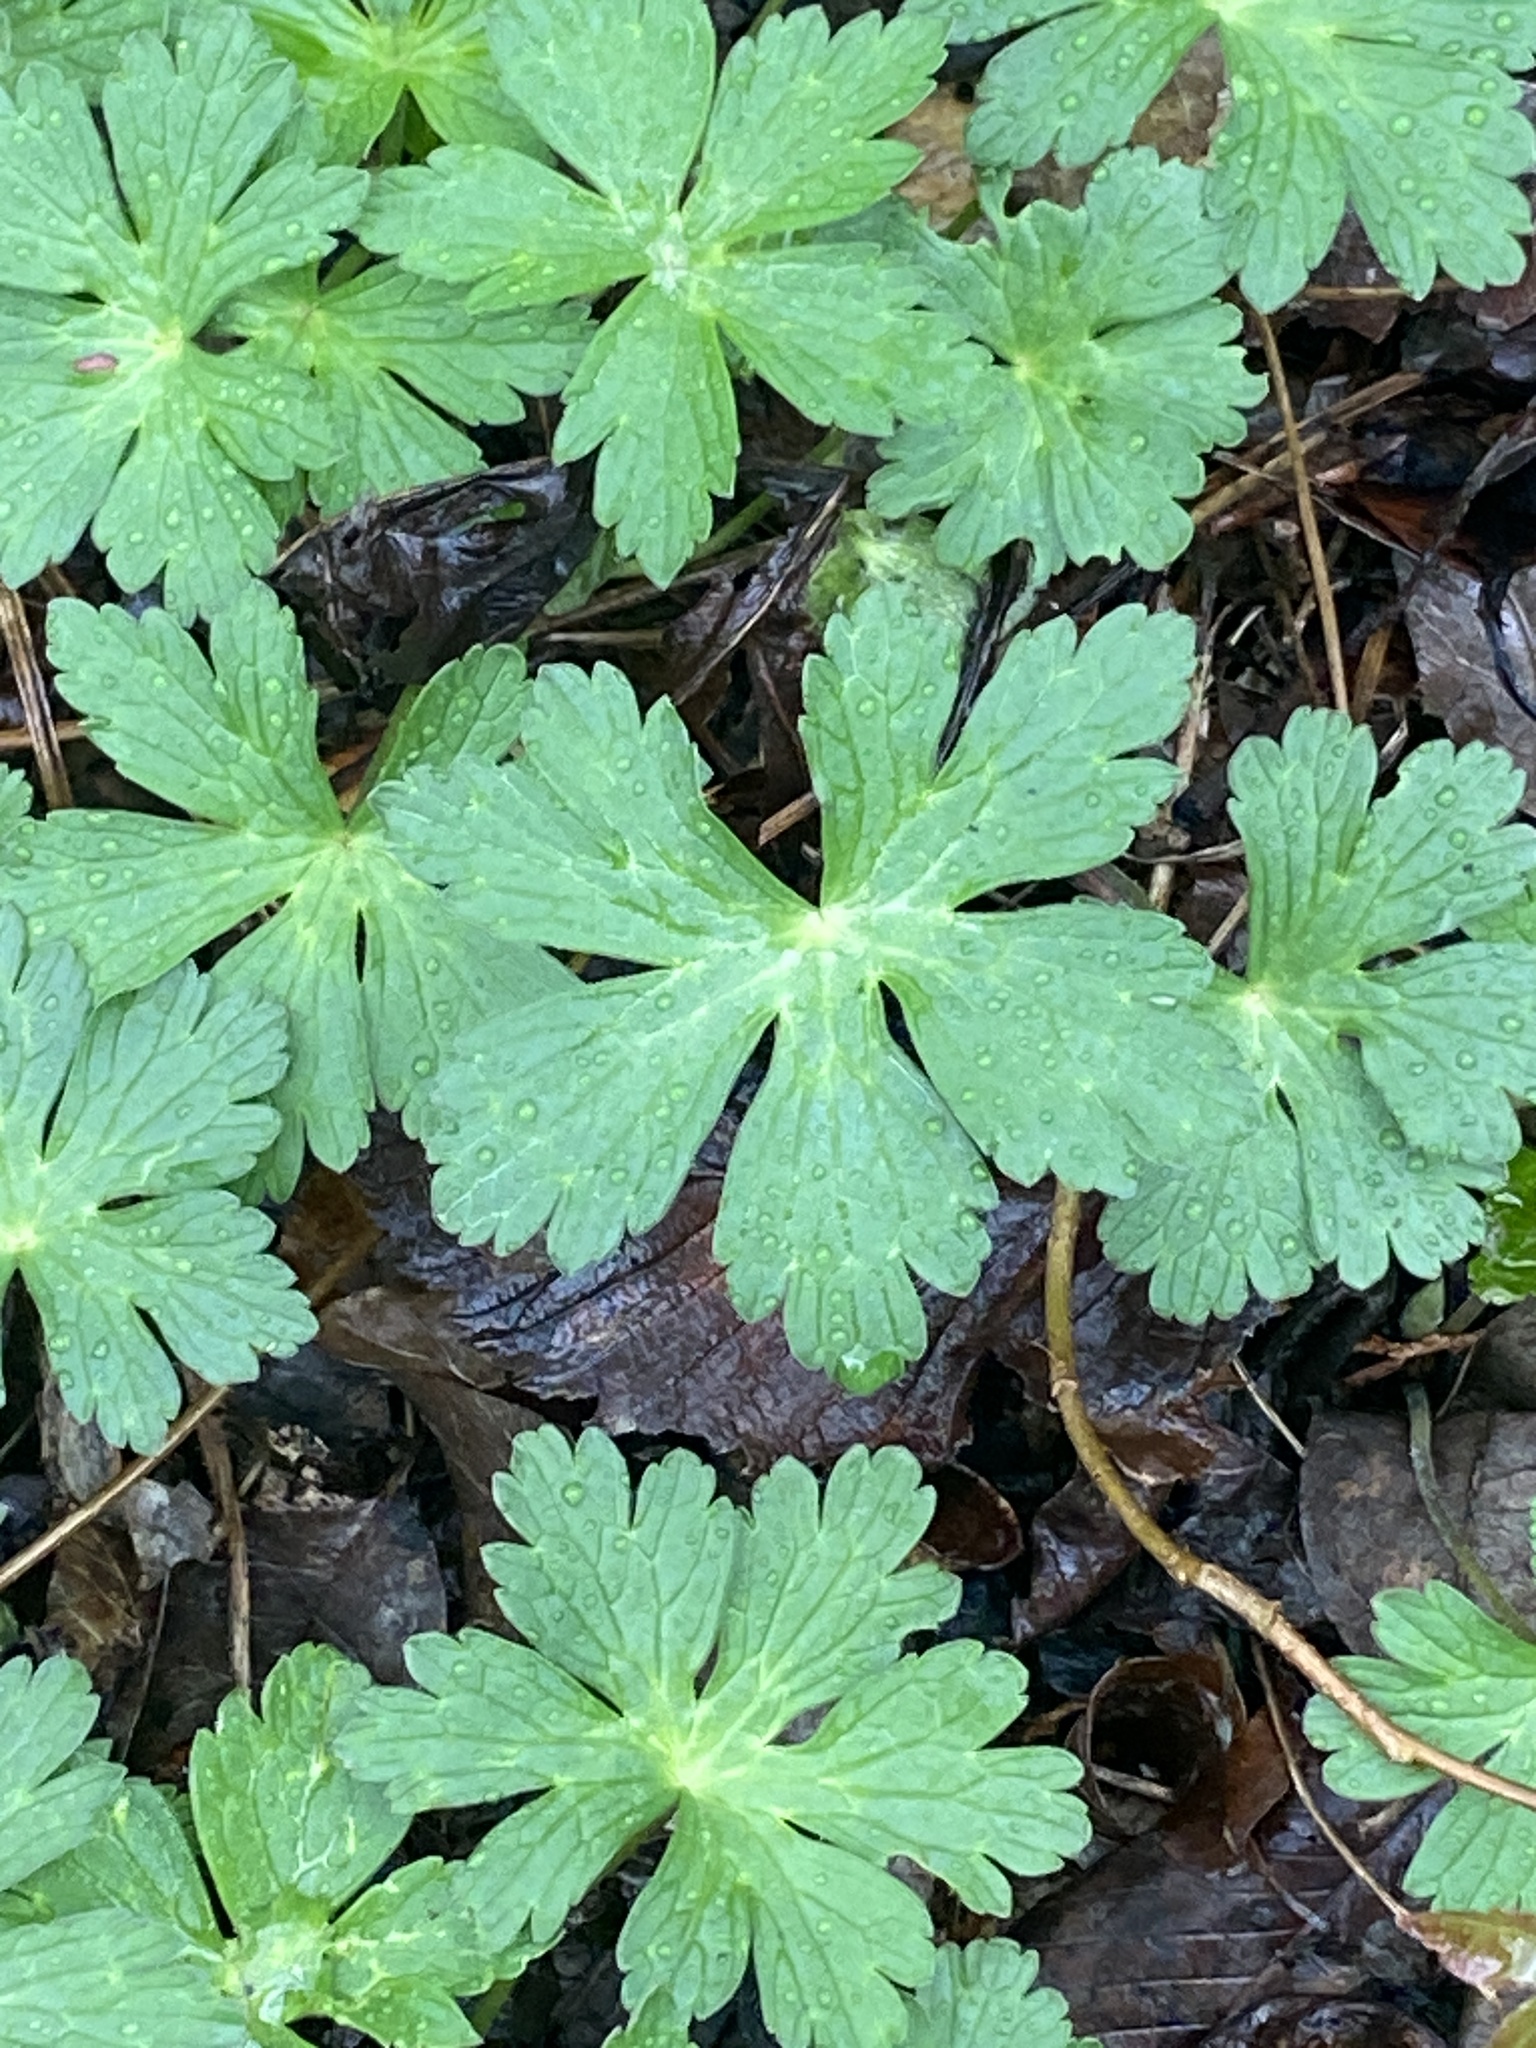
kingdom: Plantae
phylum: Tracheophyta
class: Magnoliopsida
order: Geraniales
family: Geraniaceae
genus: Geranium
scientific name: Geranium maculatum
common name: Spotted geranium
